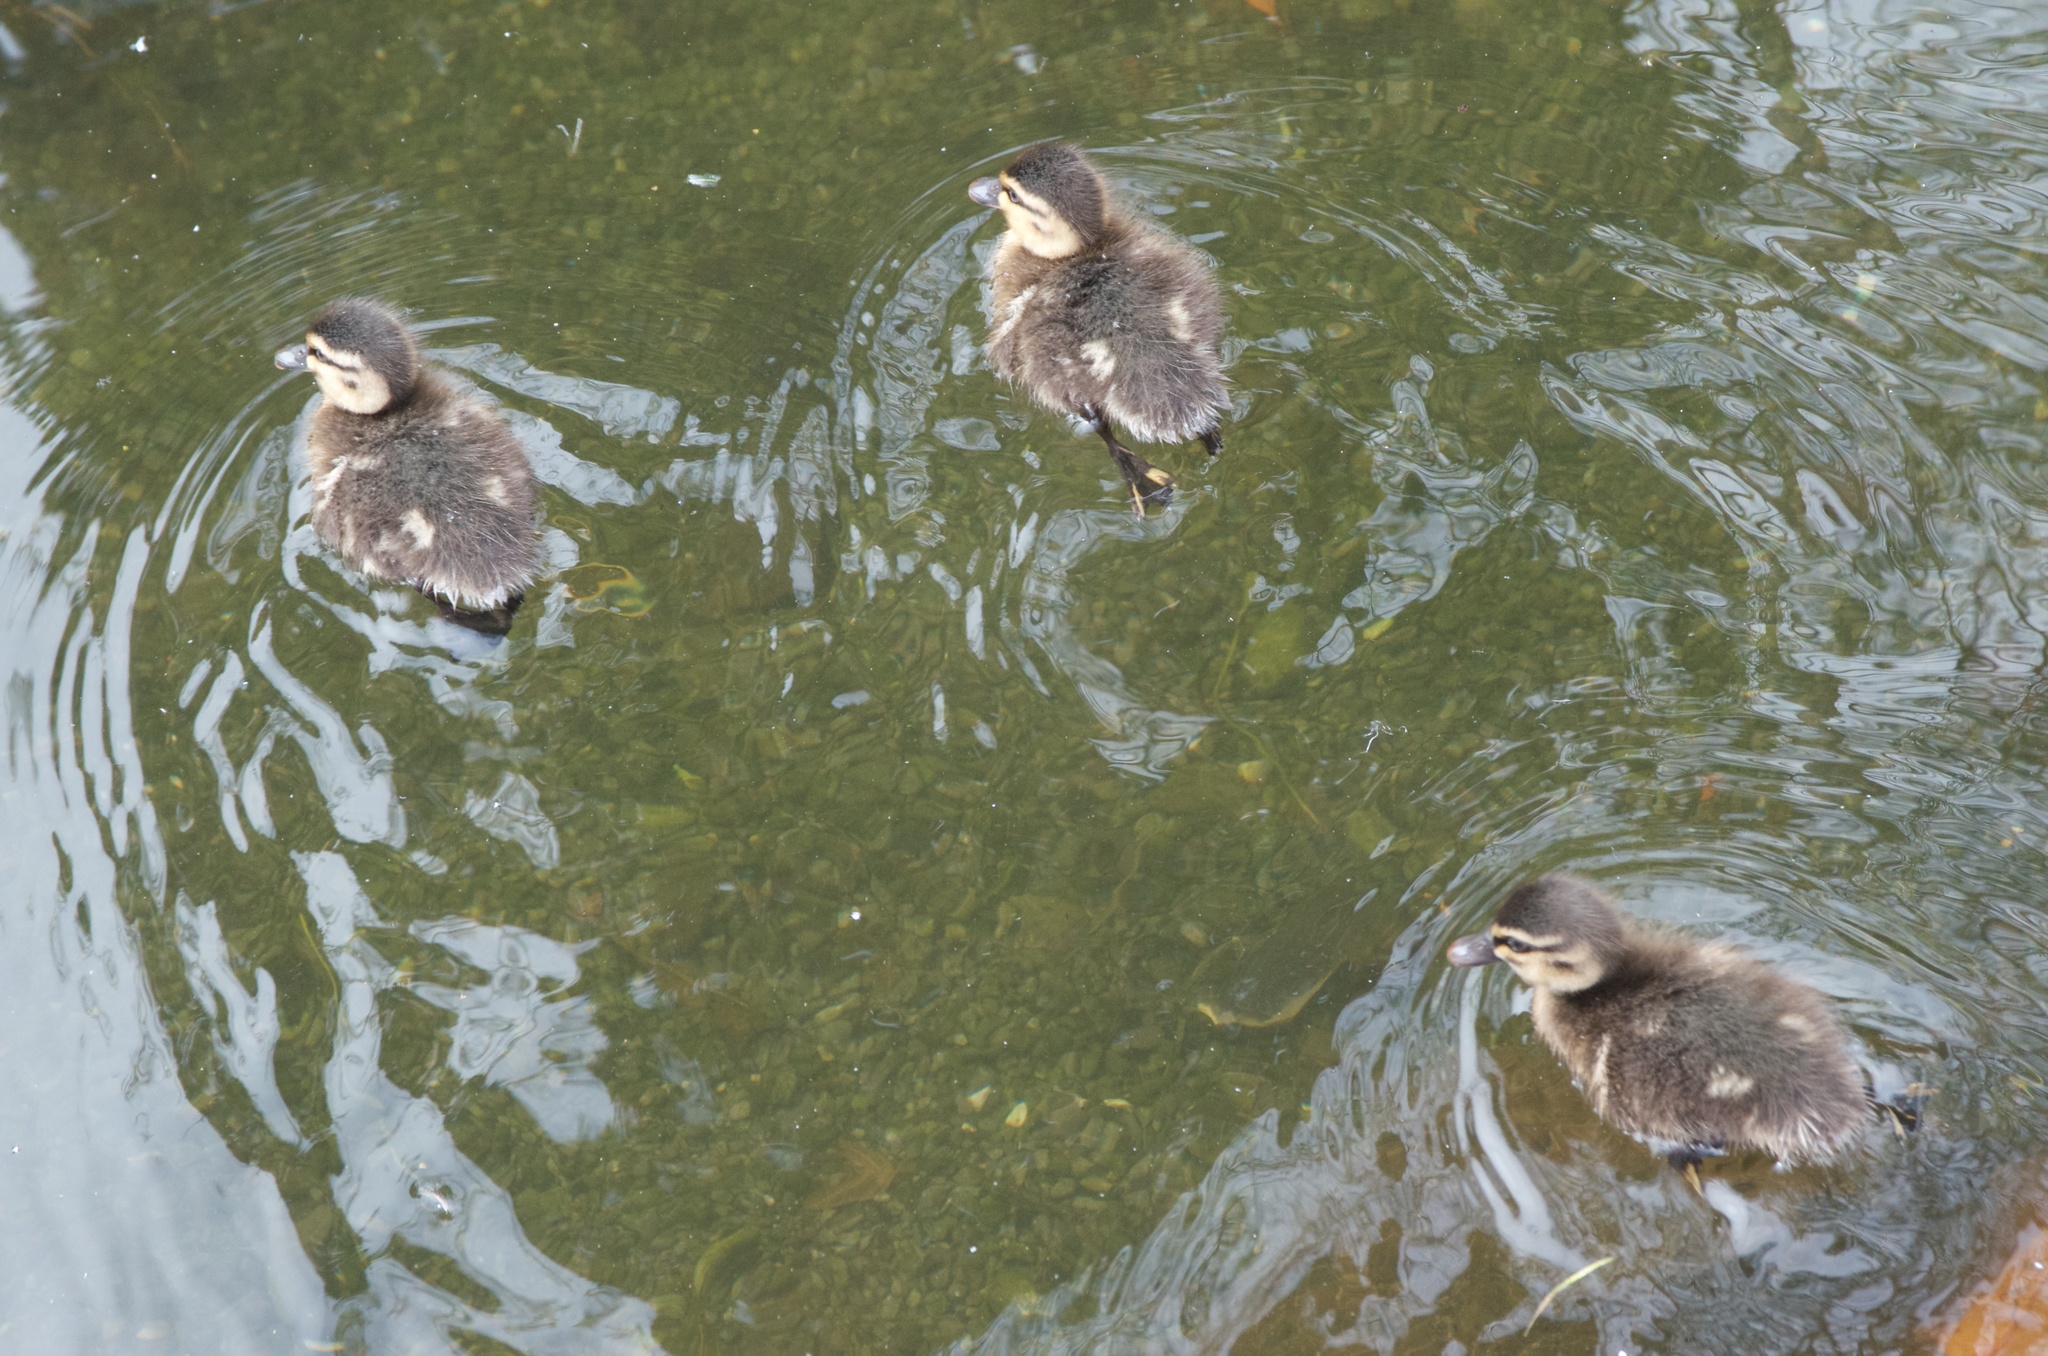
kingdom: Animalia
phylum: Chordata
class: Aves
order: Anseriformes
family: Anatidae
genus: Anas
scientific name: Anas platyrhynchos
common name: Mallard
